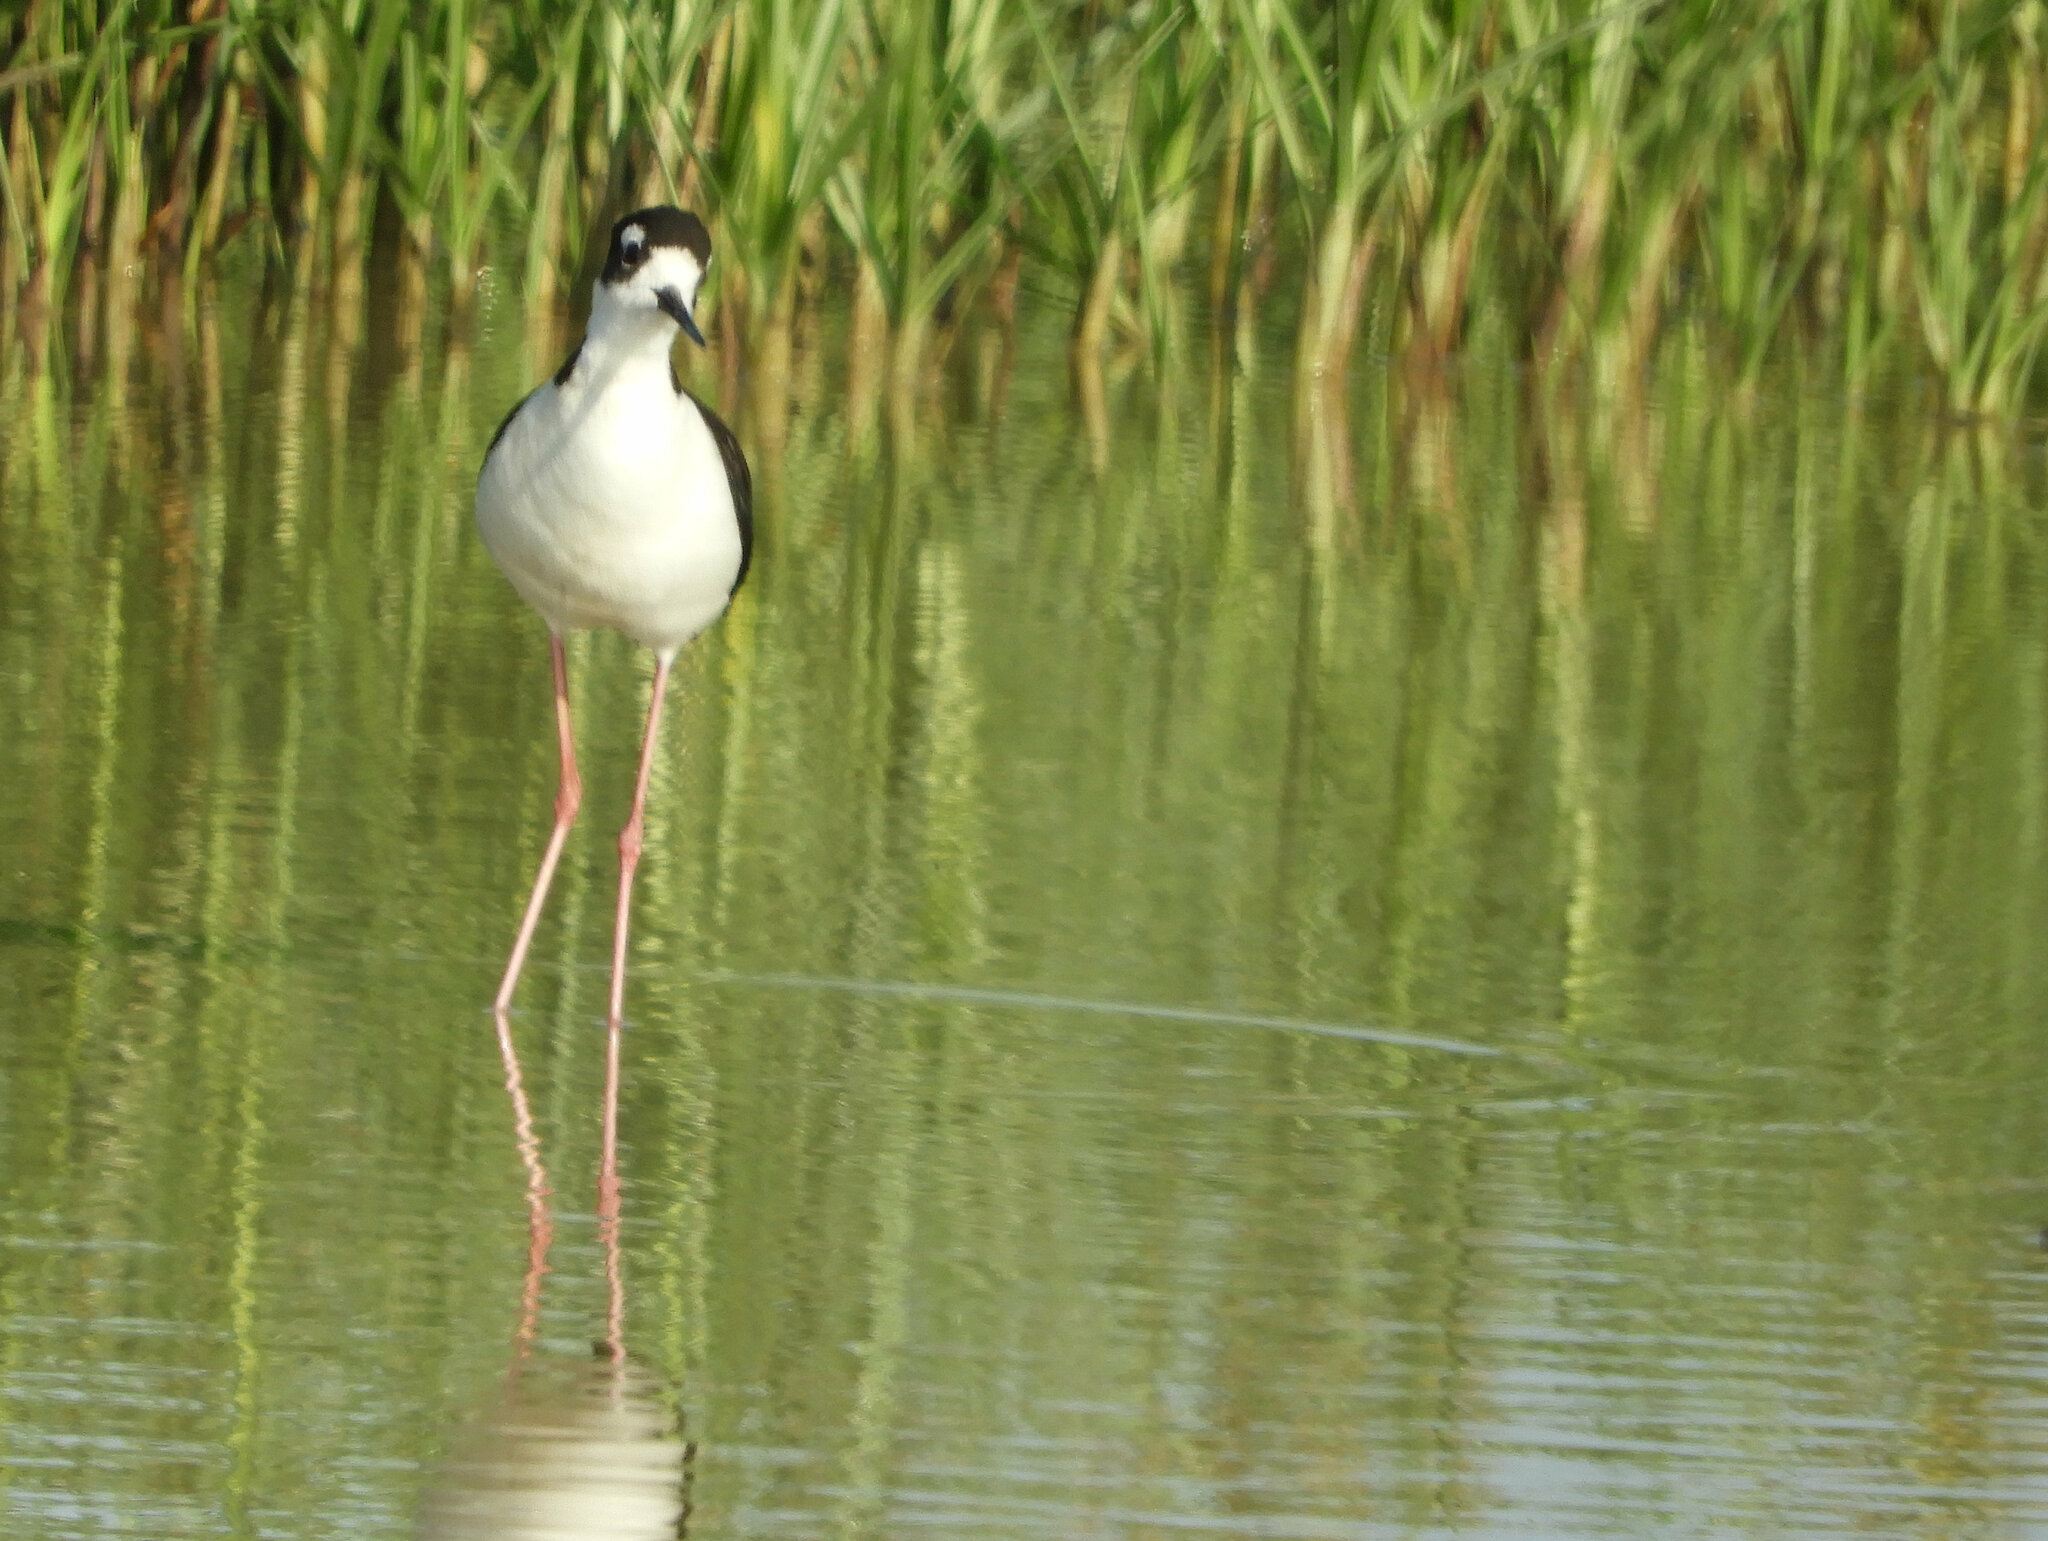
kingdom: Animalia
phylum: Chordata
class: Aves
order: Charadriiformes
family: Recurvirostridae
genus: Himantopus
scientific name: Himantopus mexicanus
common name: Black-necked stilt
